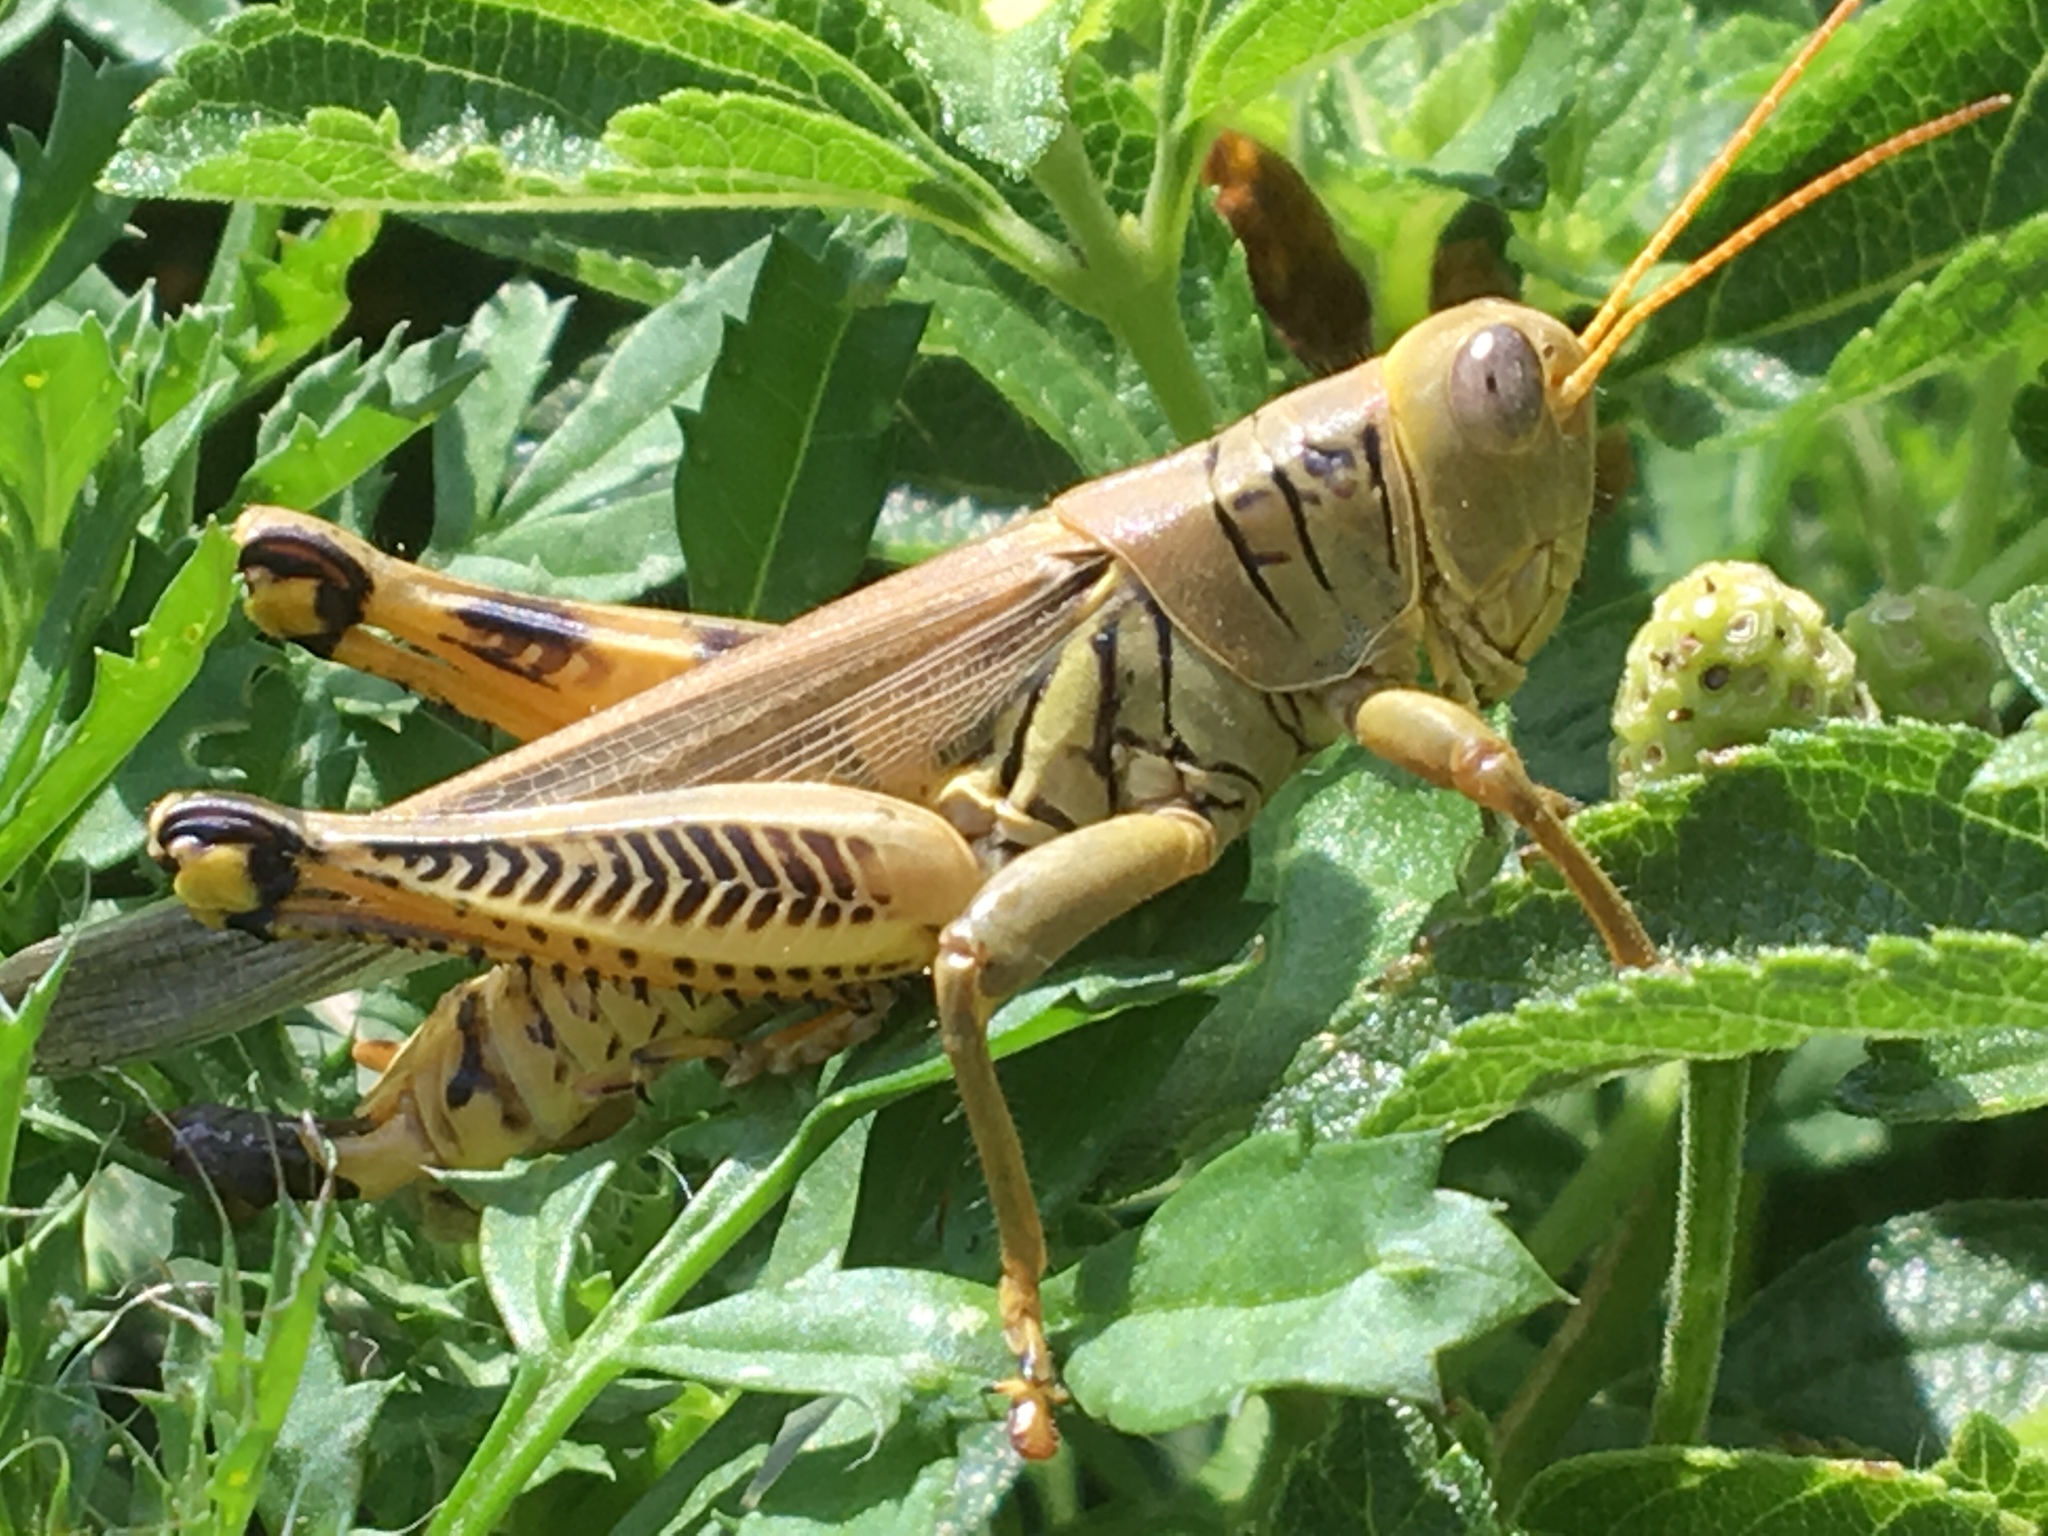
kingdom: Animalia
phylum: Arthropoda
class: Insecta
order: Orthoptera
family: Acrididae
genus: Melanoplus
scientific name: Melanoplus differentialis
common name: Differential grasshopper
